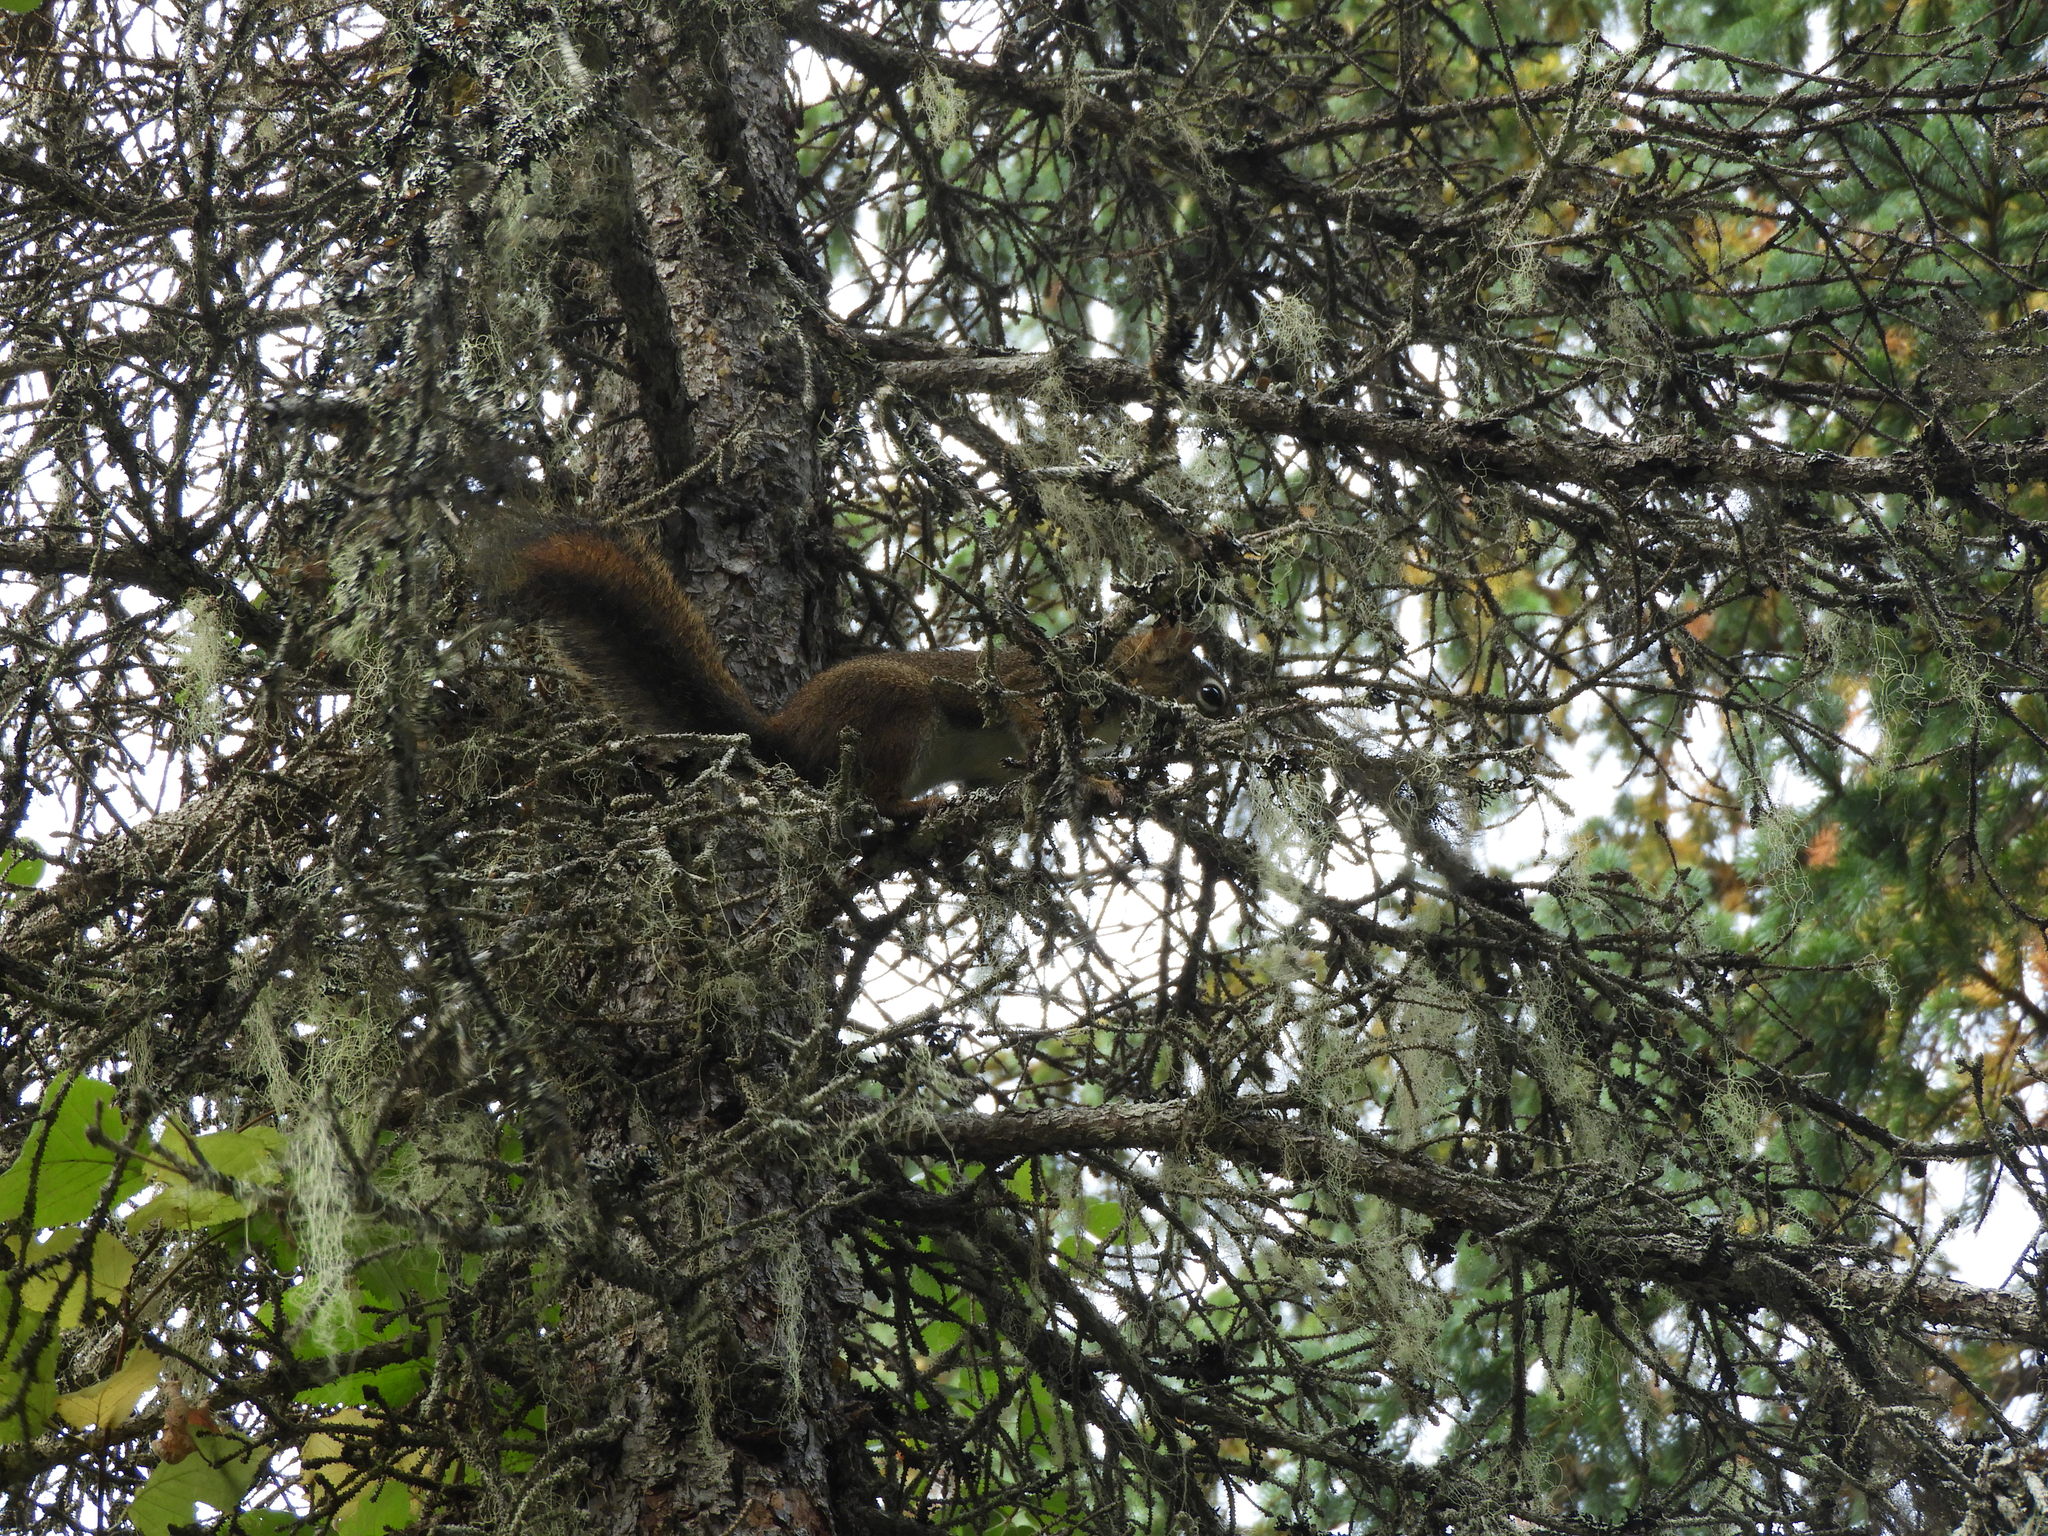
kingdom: Animalia
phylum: Chordata
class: Mammalia
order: Rodentia
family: Sciuridae
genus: Tamiasciurus
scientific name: Tamiasciurus hudsonicus
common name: Red squirrel
